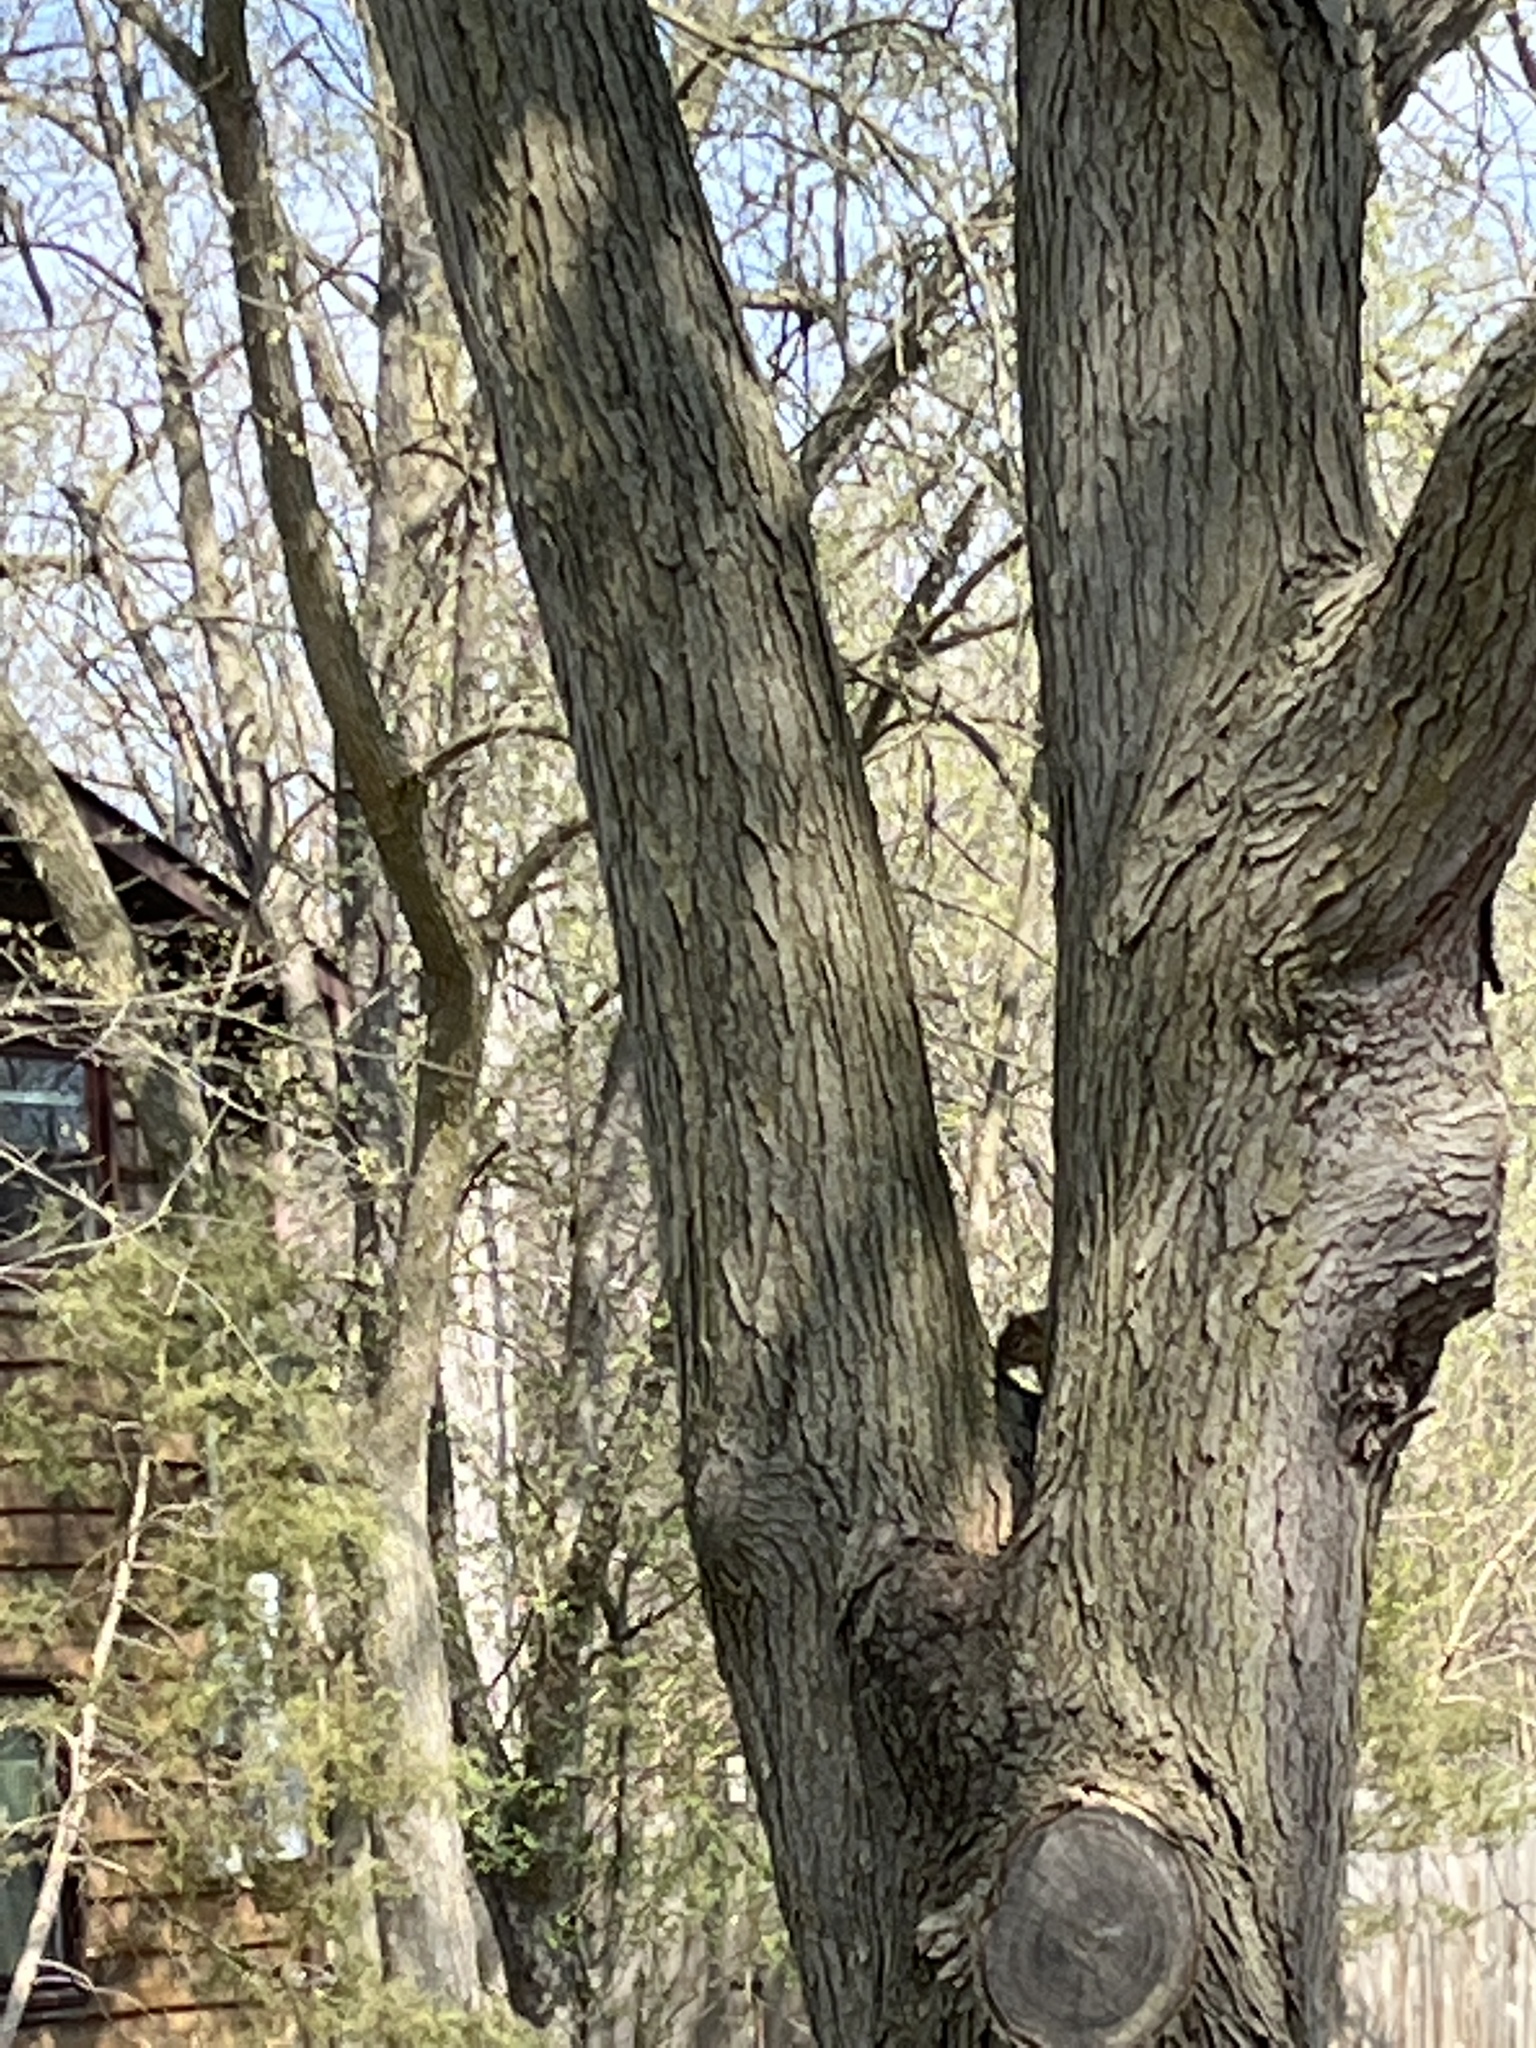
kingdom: Animalia
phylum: Chordata
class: Mammalia
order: Rodentia
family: Sciuridae
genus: Sciurus
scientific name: Sciurus niger
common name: Fox squirrel
